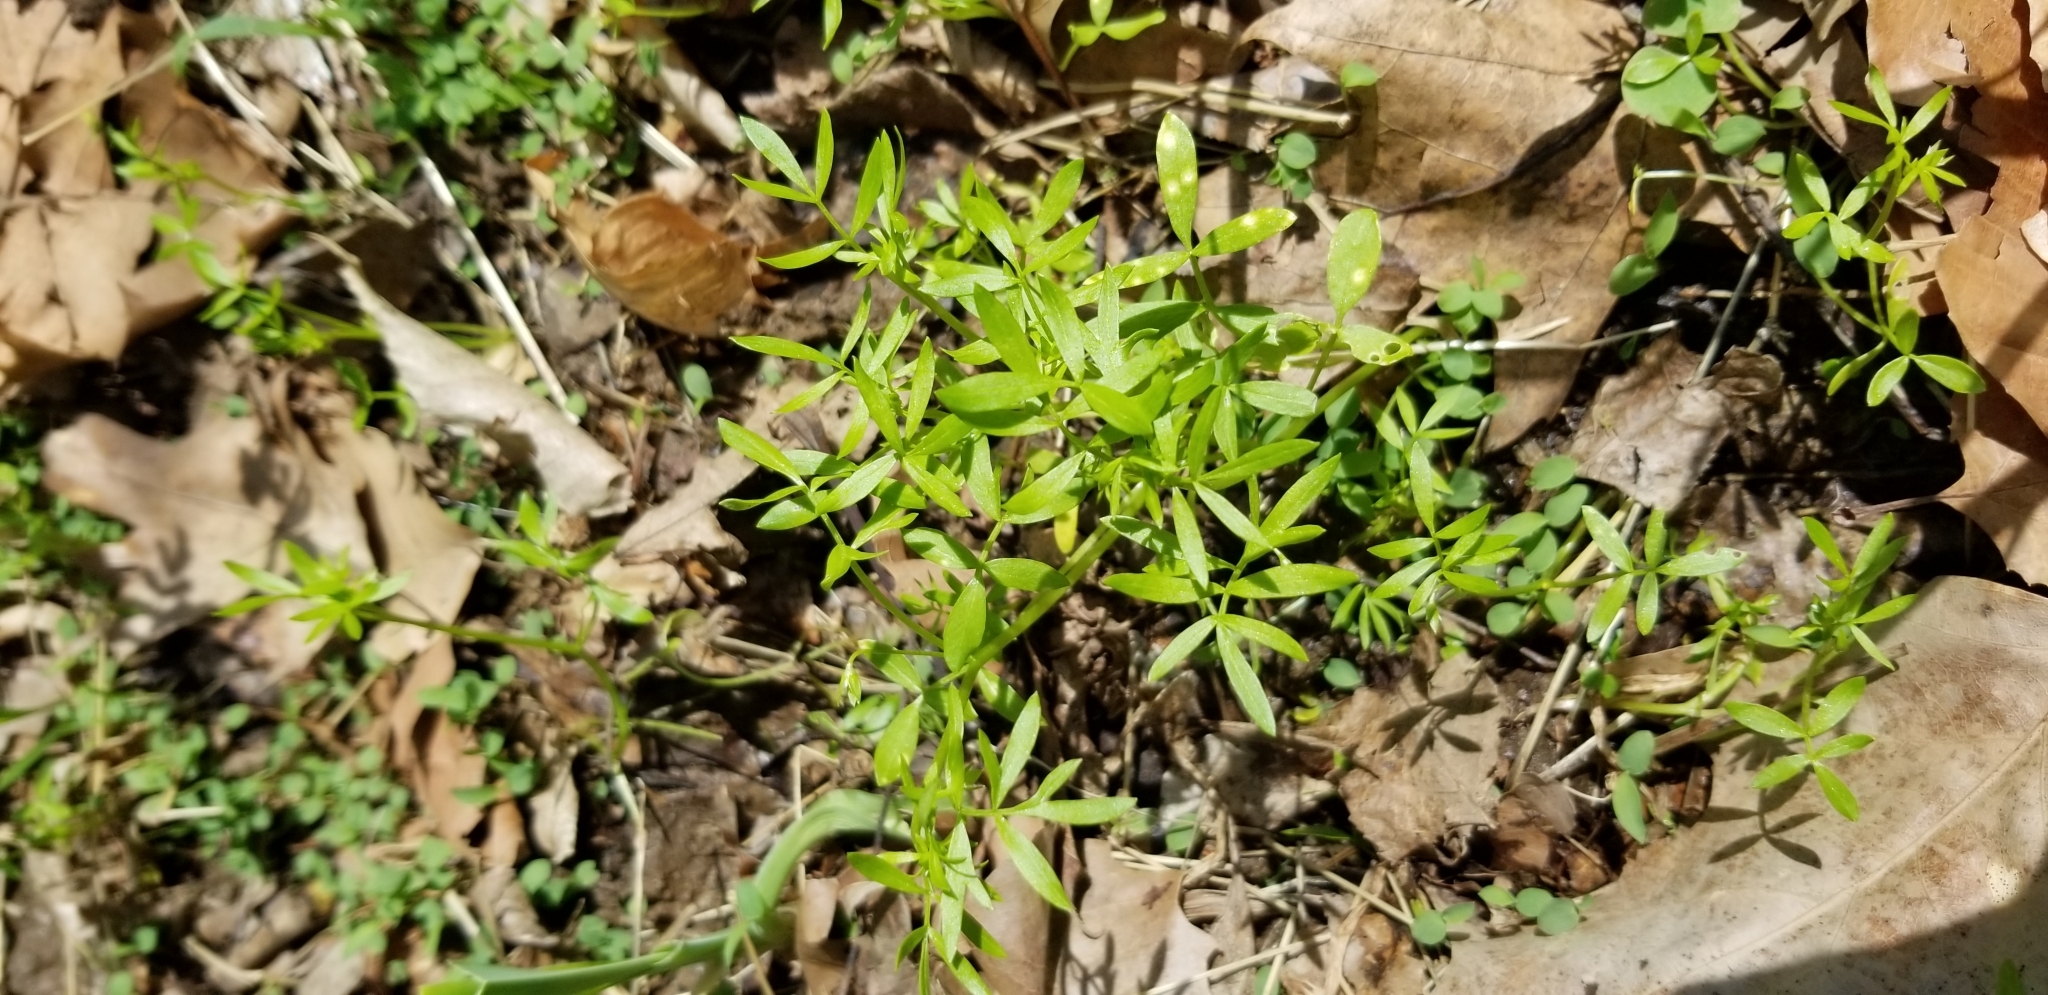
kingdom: Plantae
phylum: Tracheophyta
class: Magnoliopsida
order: Brassicales
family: Limnanthaceae
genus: Floerkea
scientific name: Floerkea proserpinacoides
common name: False mermaid
